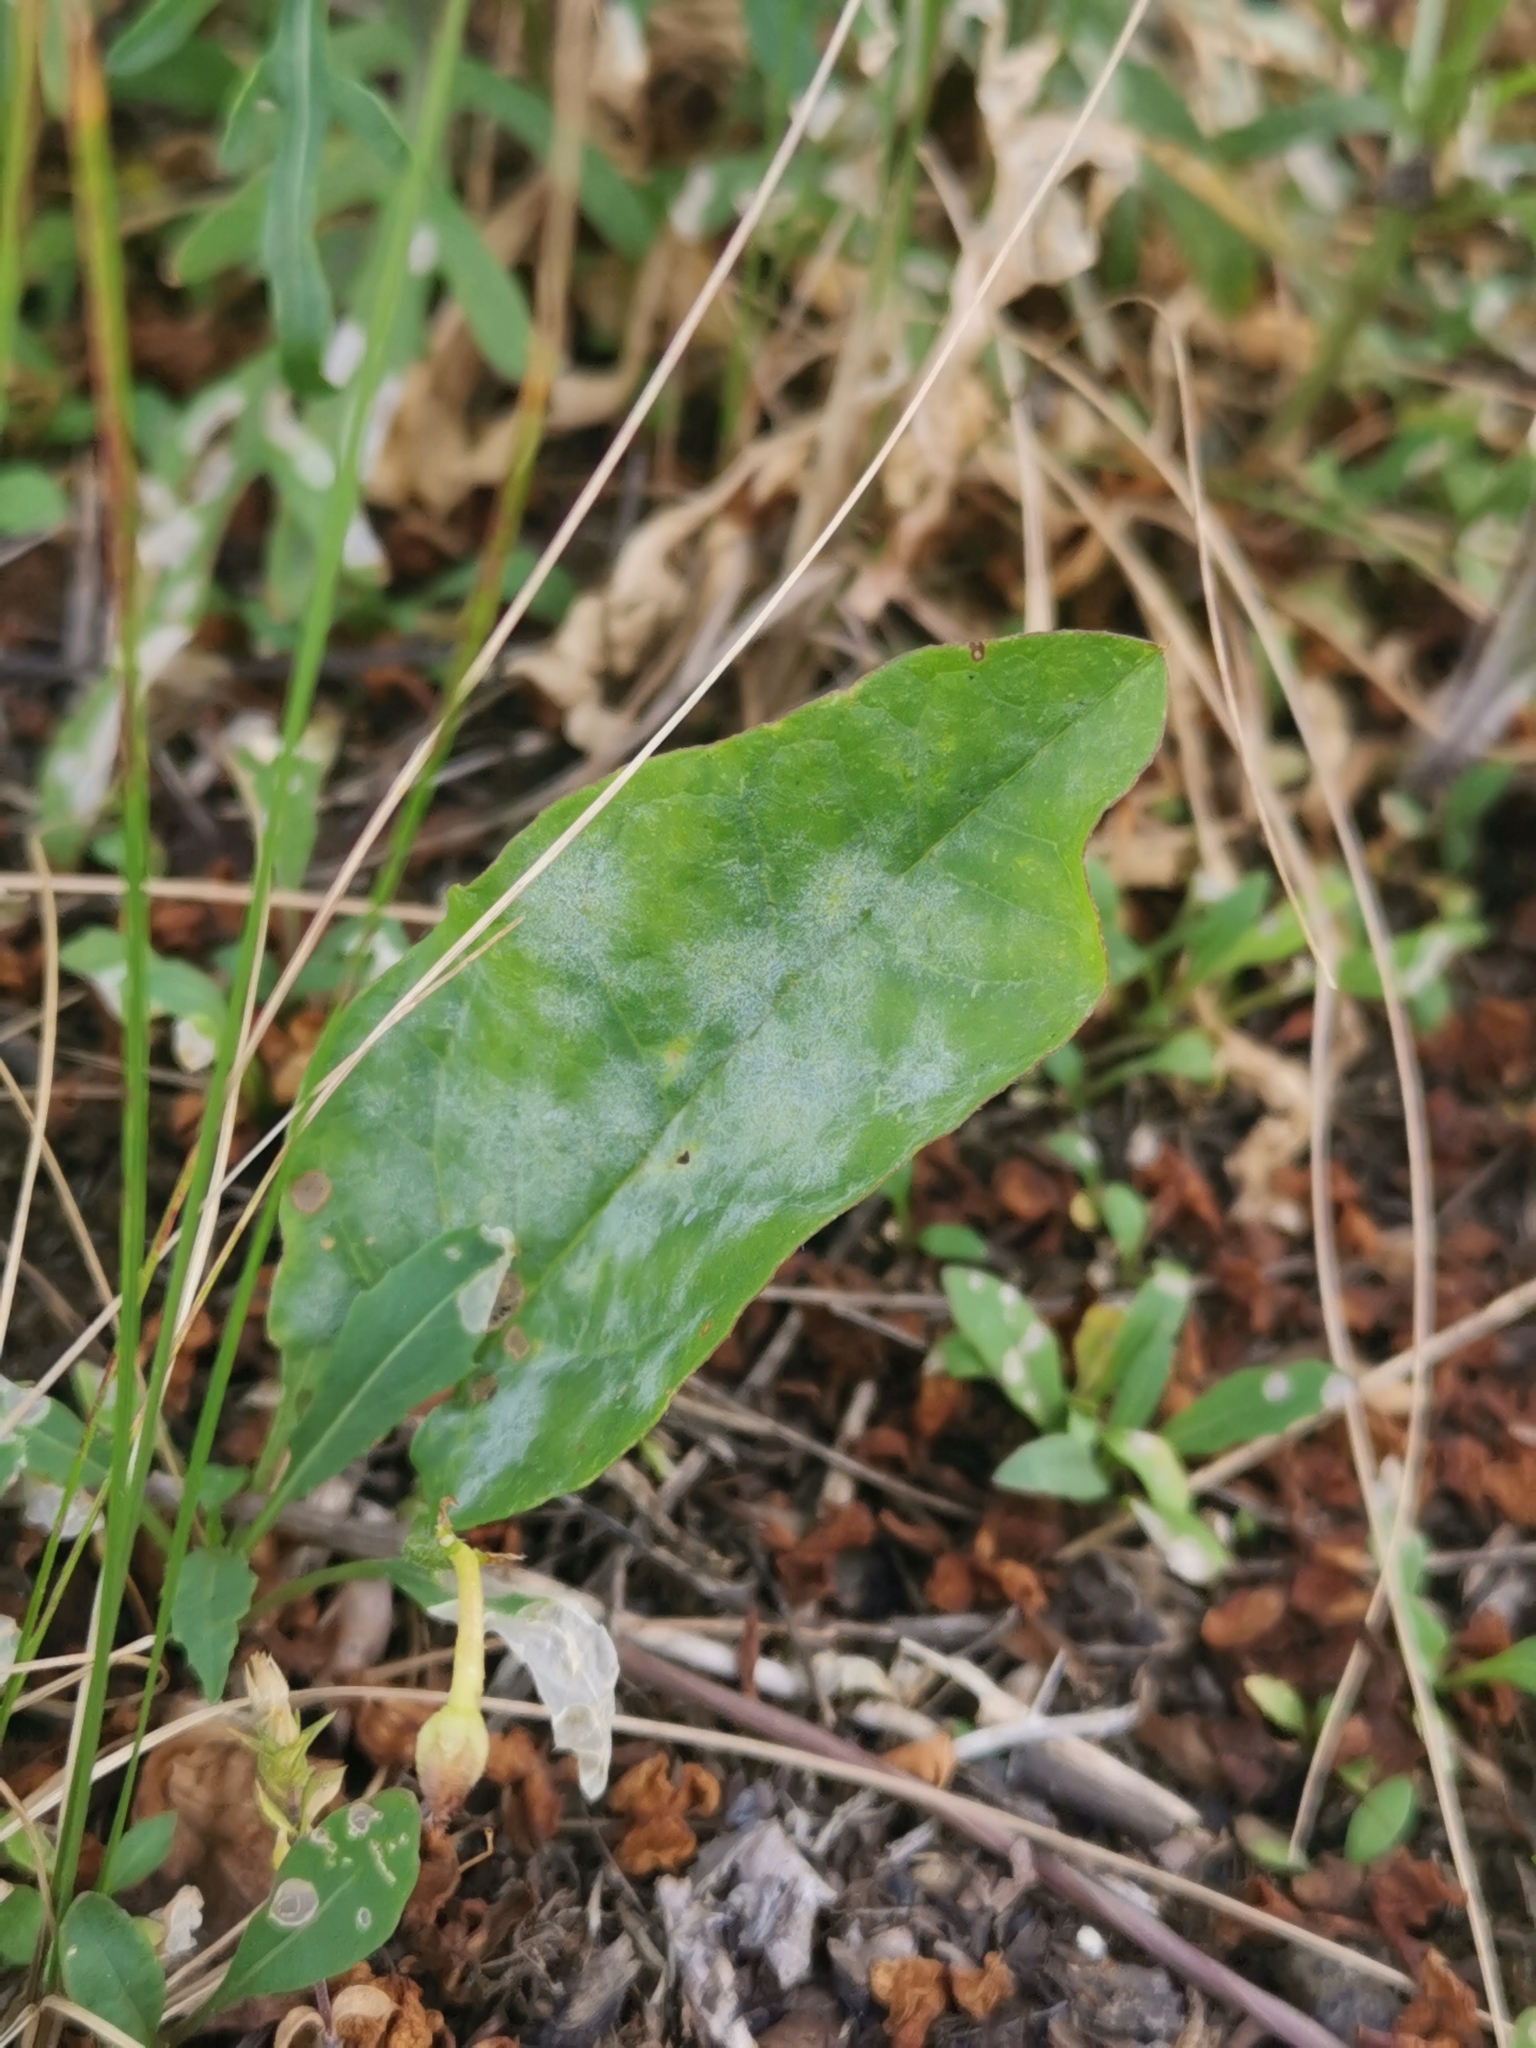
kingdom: Fungi
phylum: Ascomycota
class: Leotiomycetes
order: Helotiales
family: Erysiphaceae
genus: Erysiphe
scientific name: Erysiphe convolvuli
